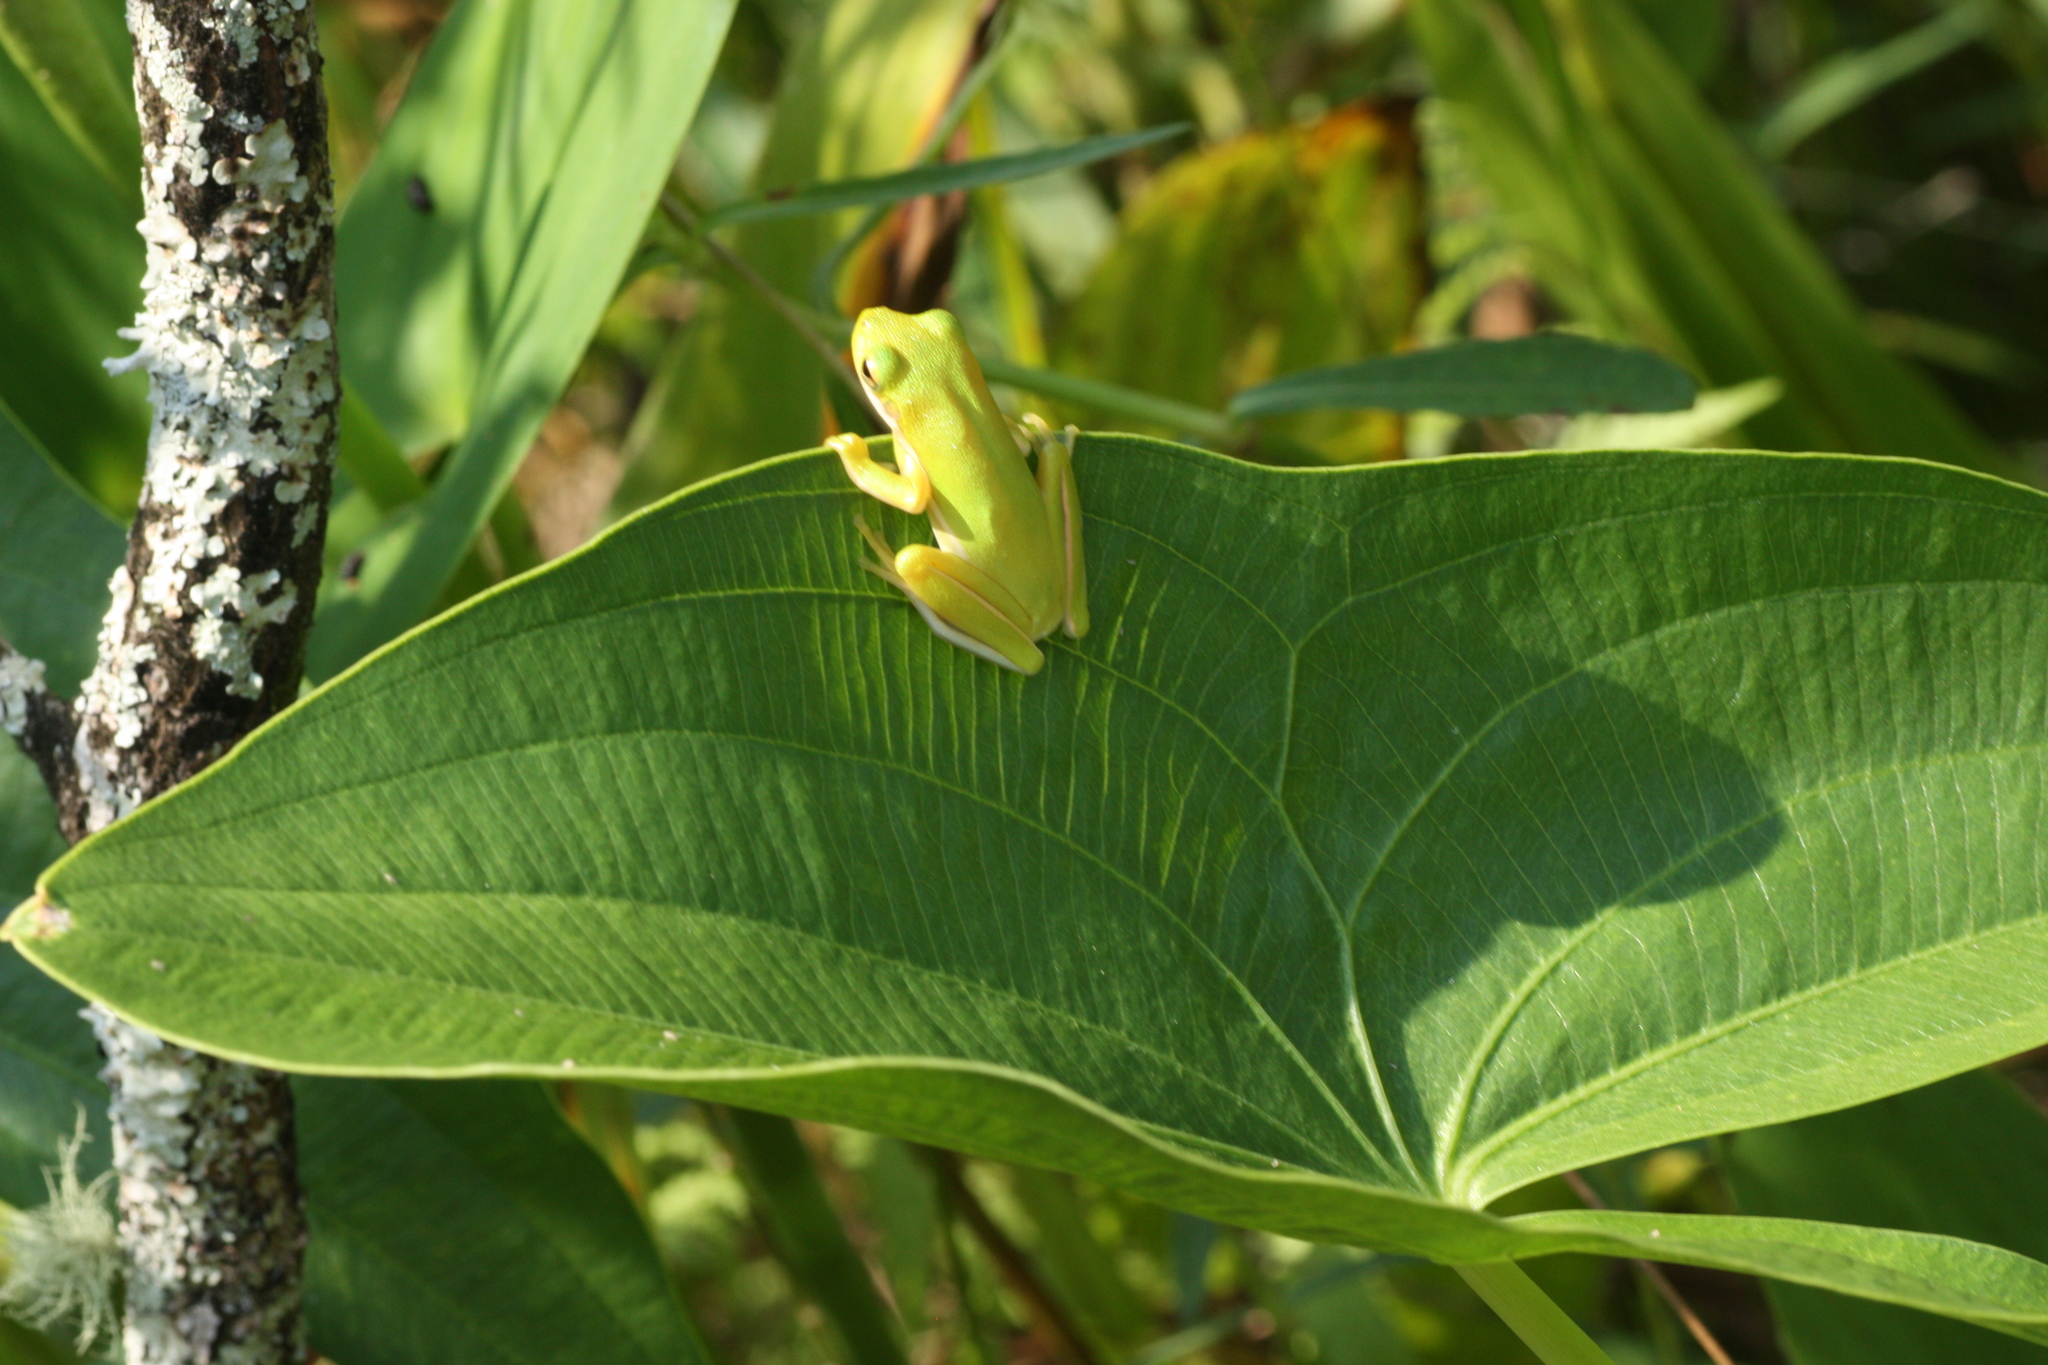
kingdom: Animalia
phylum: Chordata
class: Amphibia
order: Anura
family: Hylidae
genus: Dryophytes
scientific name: Dryophytes cinereus
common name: Green treefrog
